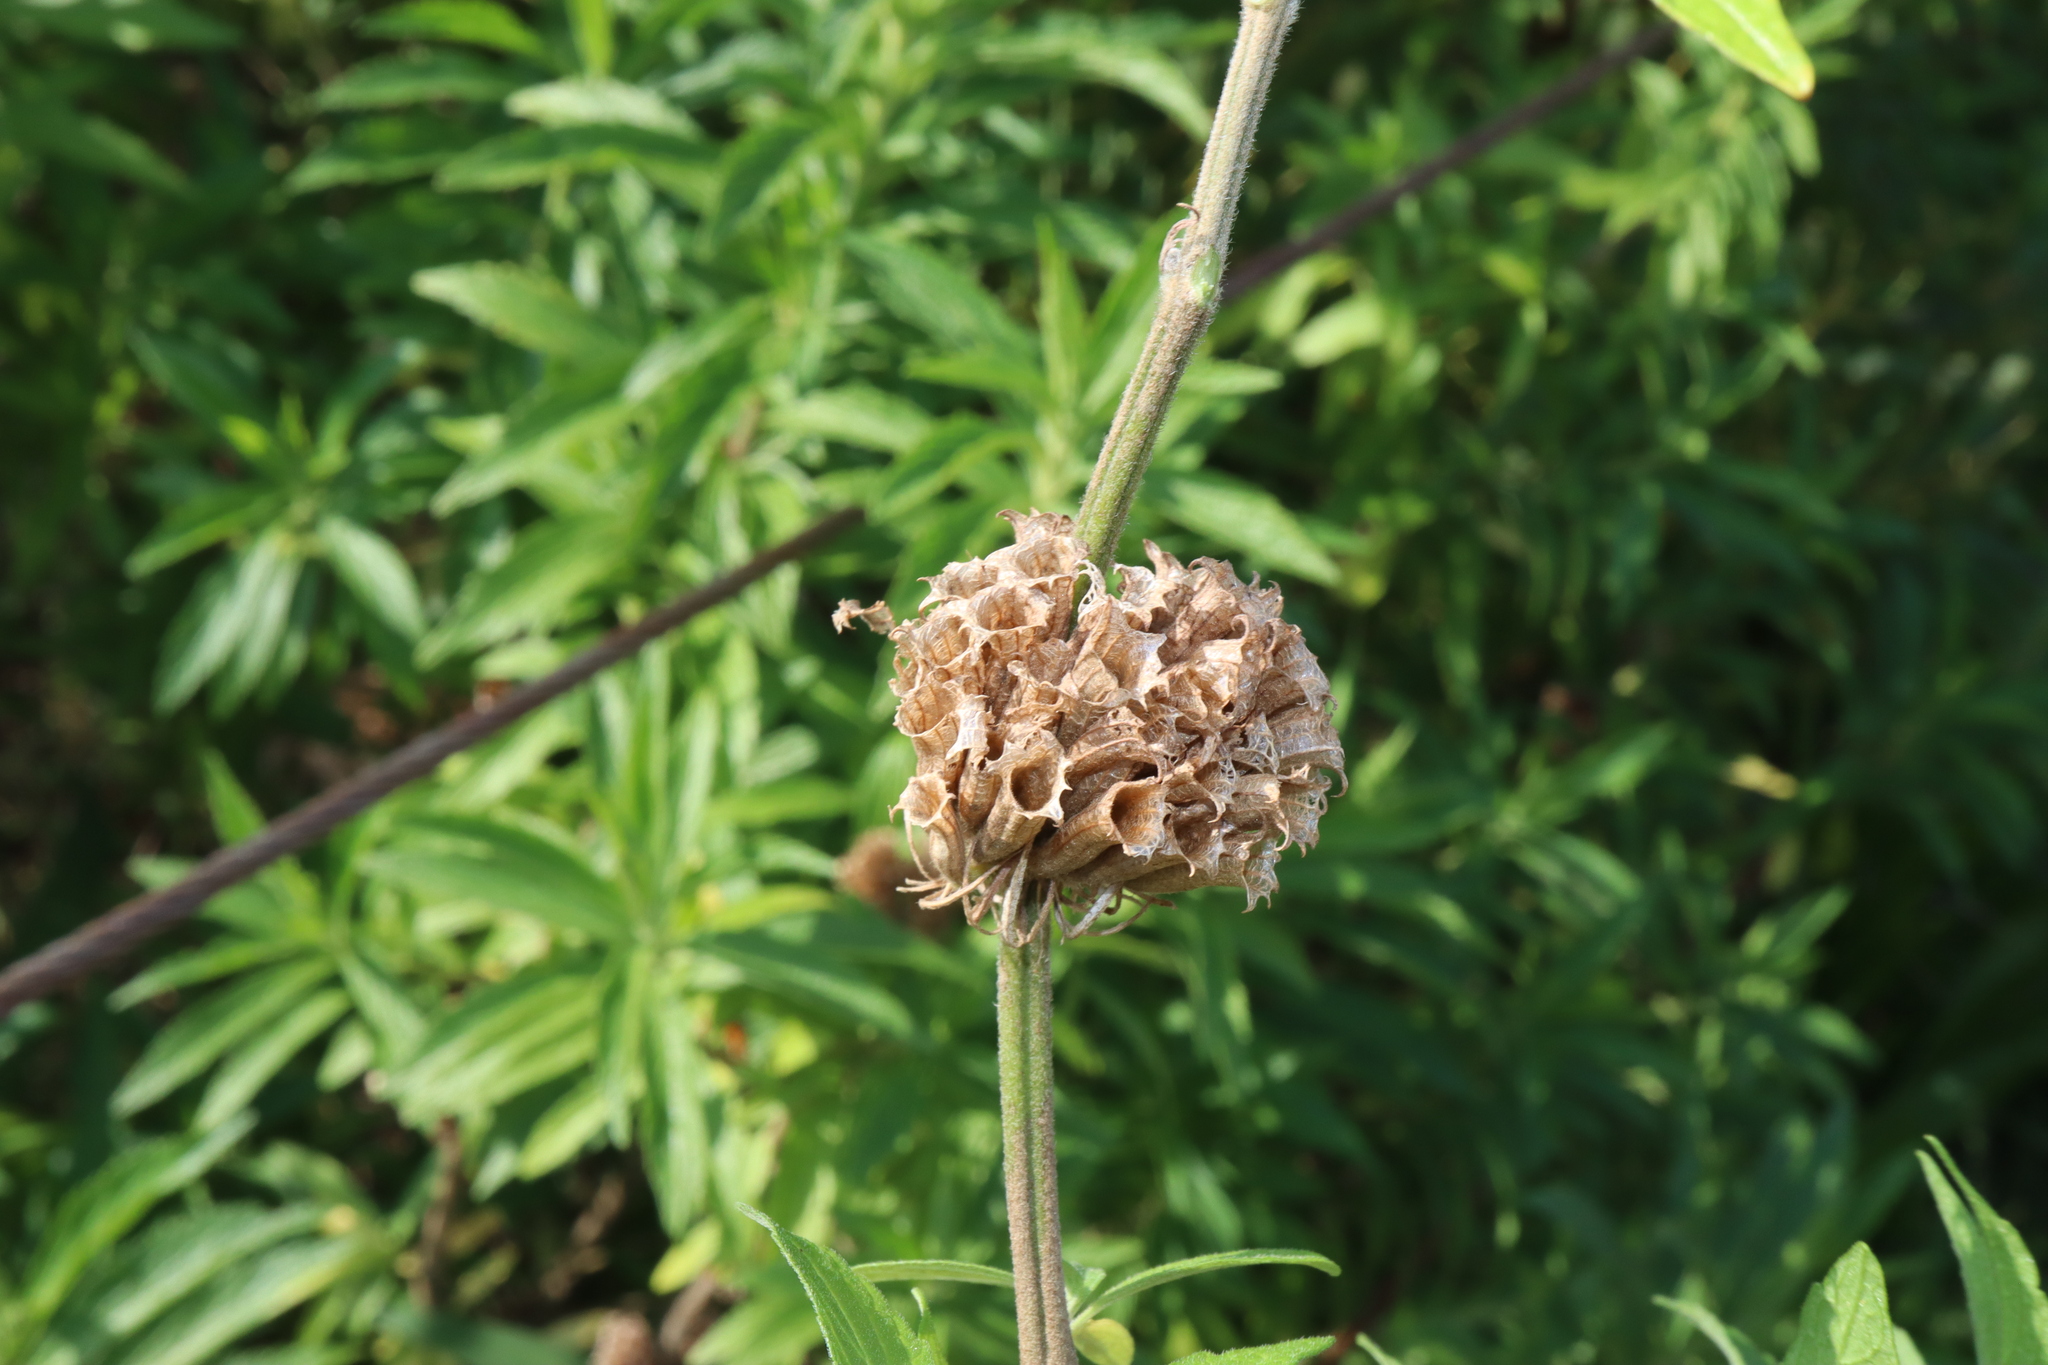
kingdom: Plantae
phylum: Tracheophyta
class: Magnoliopsida
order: Lamiales
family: Lamiaceae
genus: Leonotis
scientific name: Leonotis leonurus
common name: Lion's ear
